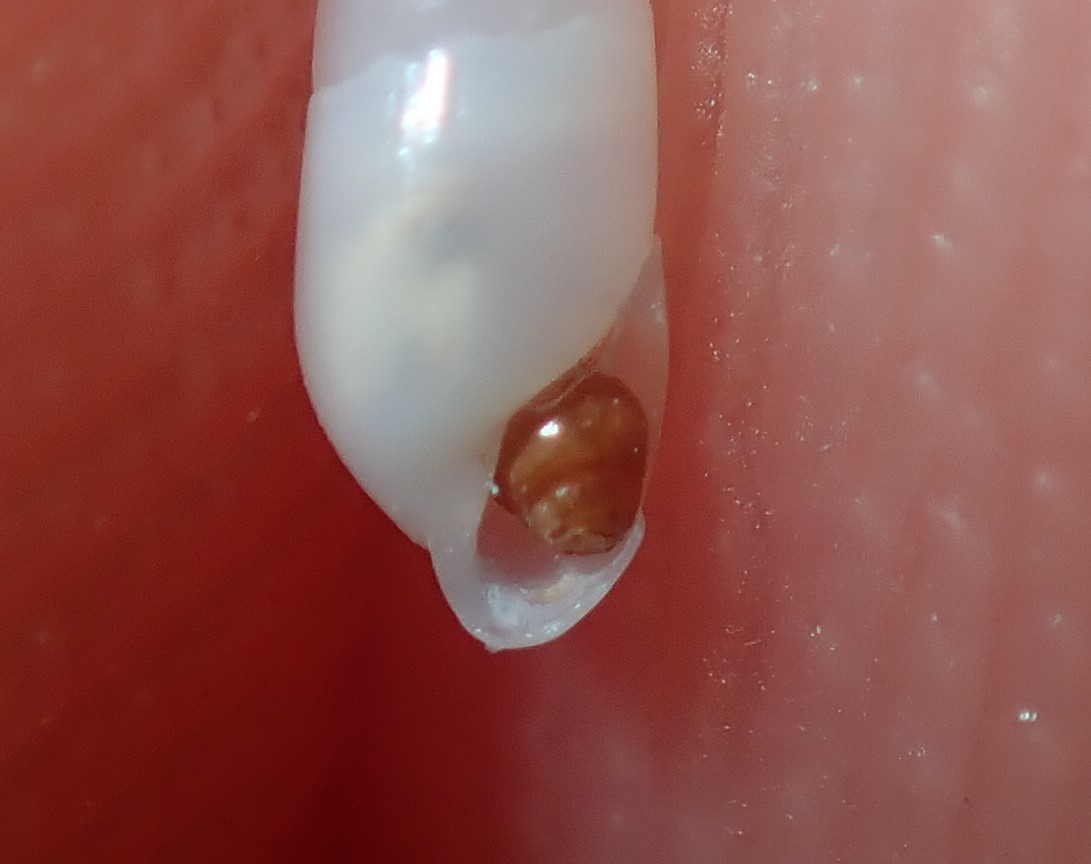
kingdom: Animalia
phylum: Mollusca
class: Gastropoda
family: Pyramidellidae
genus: Syrnola
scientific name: Syrnola aurantiaca
